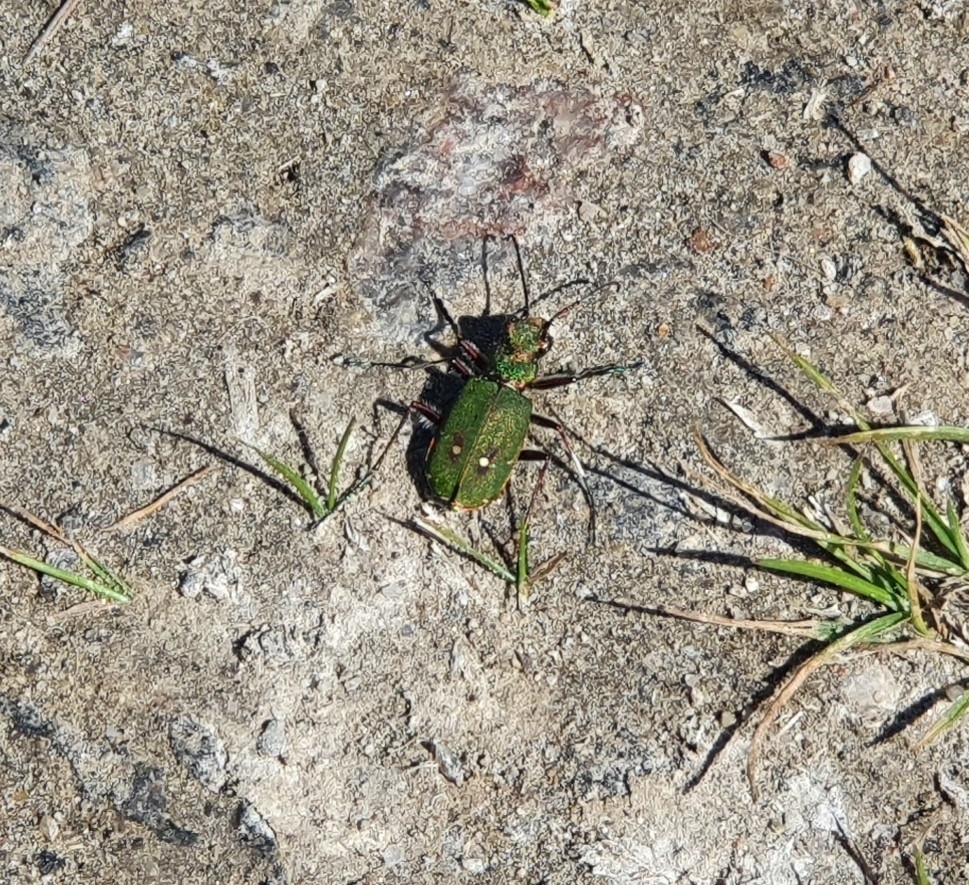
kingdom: Animalia
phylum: Arthropoda
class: Insecta
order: Coleoptera
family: Carabidae
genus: Cicindela
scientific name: Cicindela campestris
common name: Common tiger beetle
